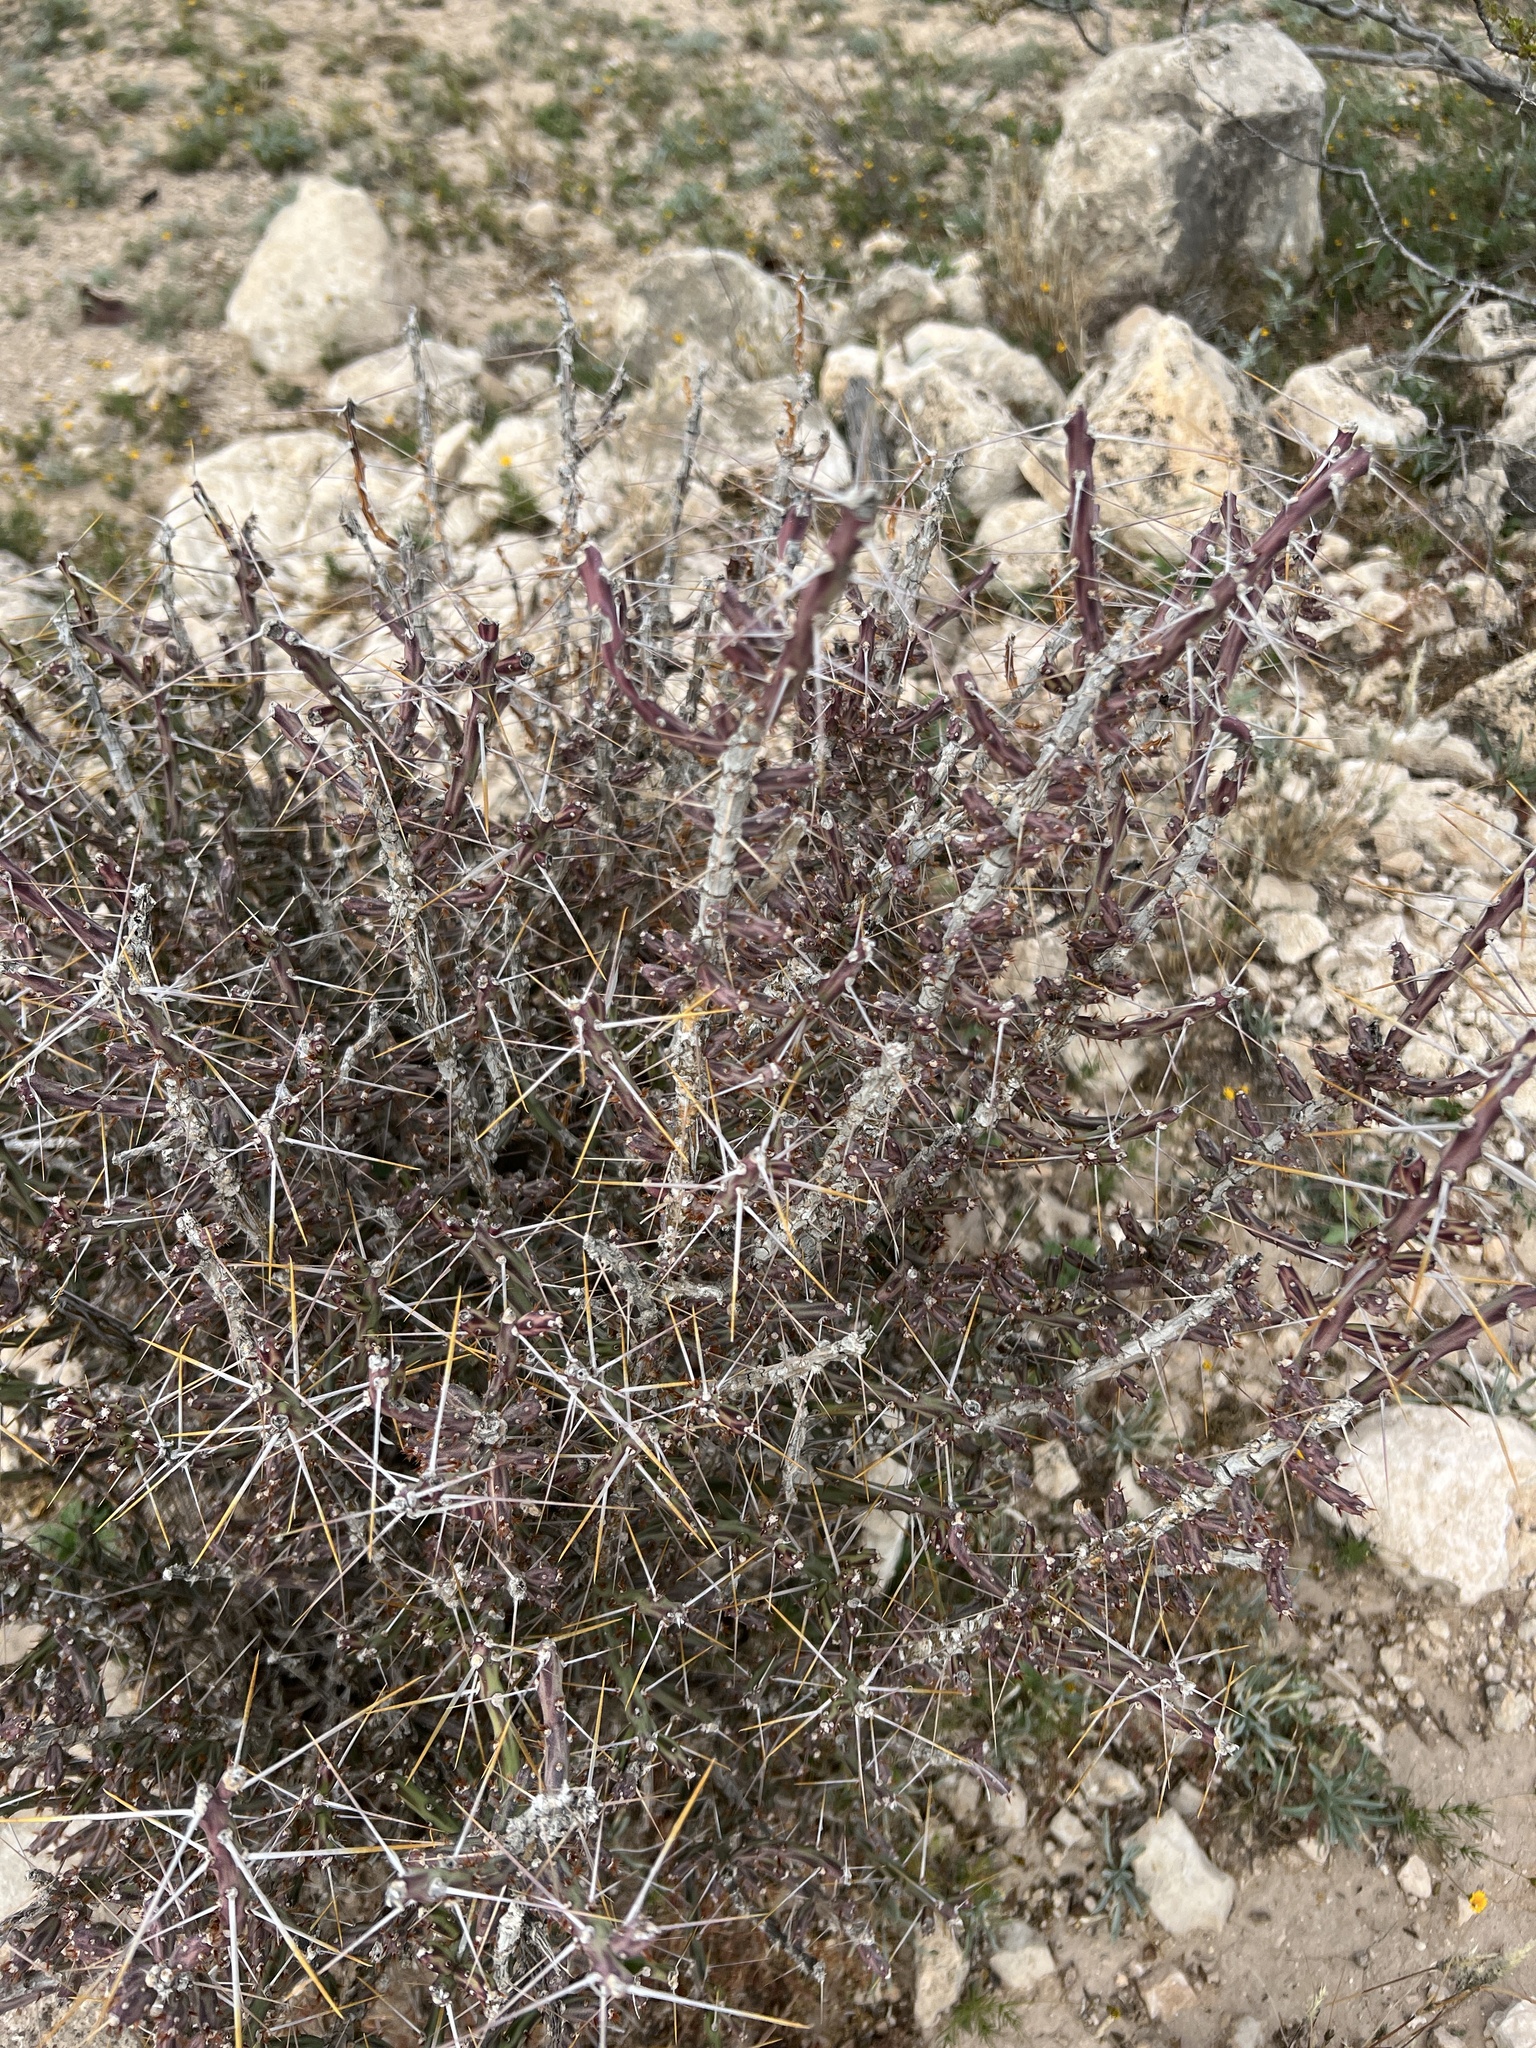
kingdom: Plantae
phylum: Tracheophyta
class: Magnoliopsida
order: Caryophyllales
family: Cactaceae
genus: Cylindropuntia
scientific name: Cylindropuntia leptocaulis
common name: Christmas cactus
